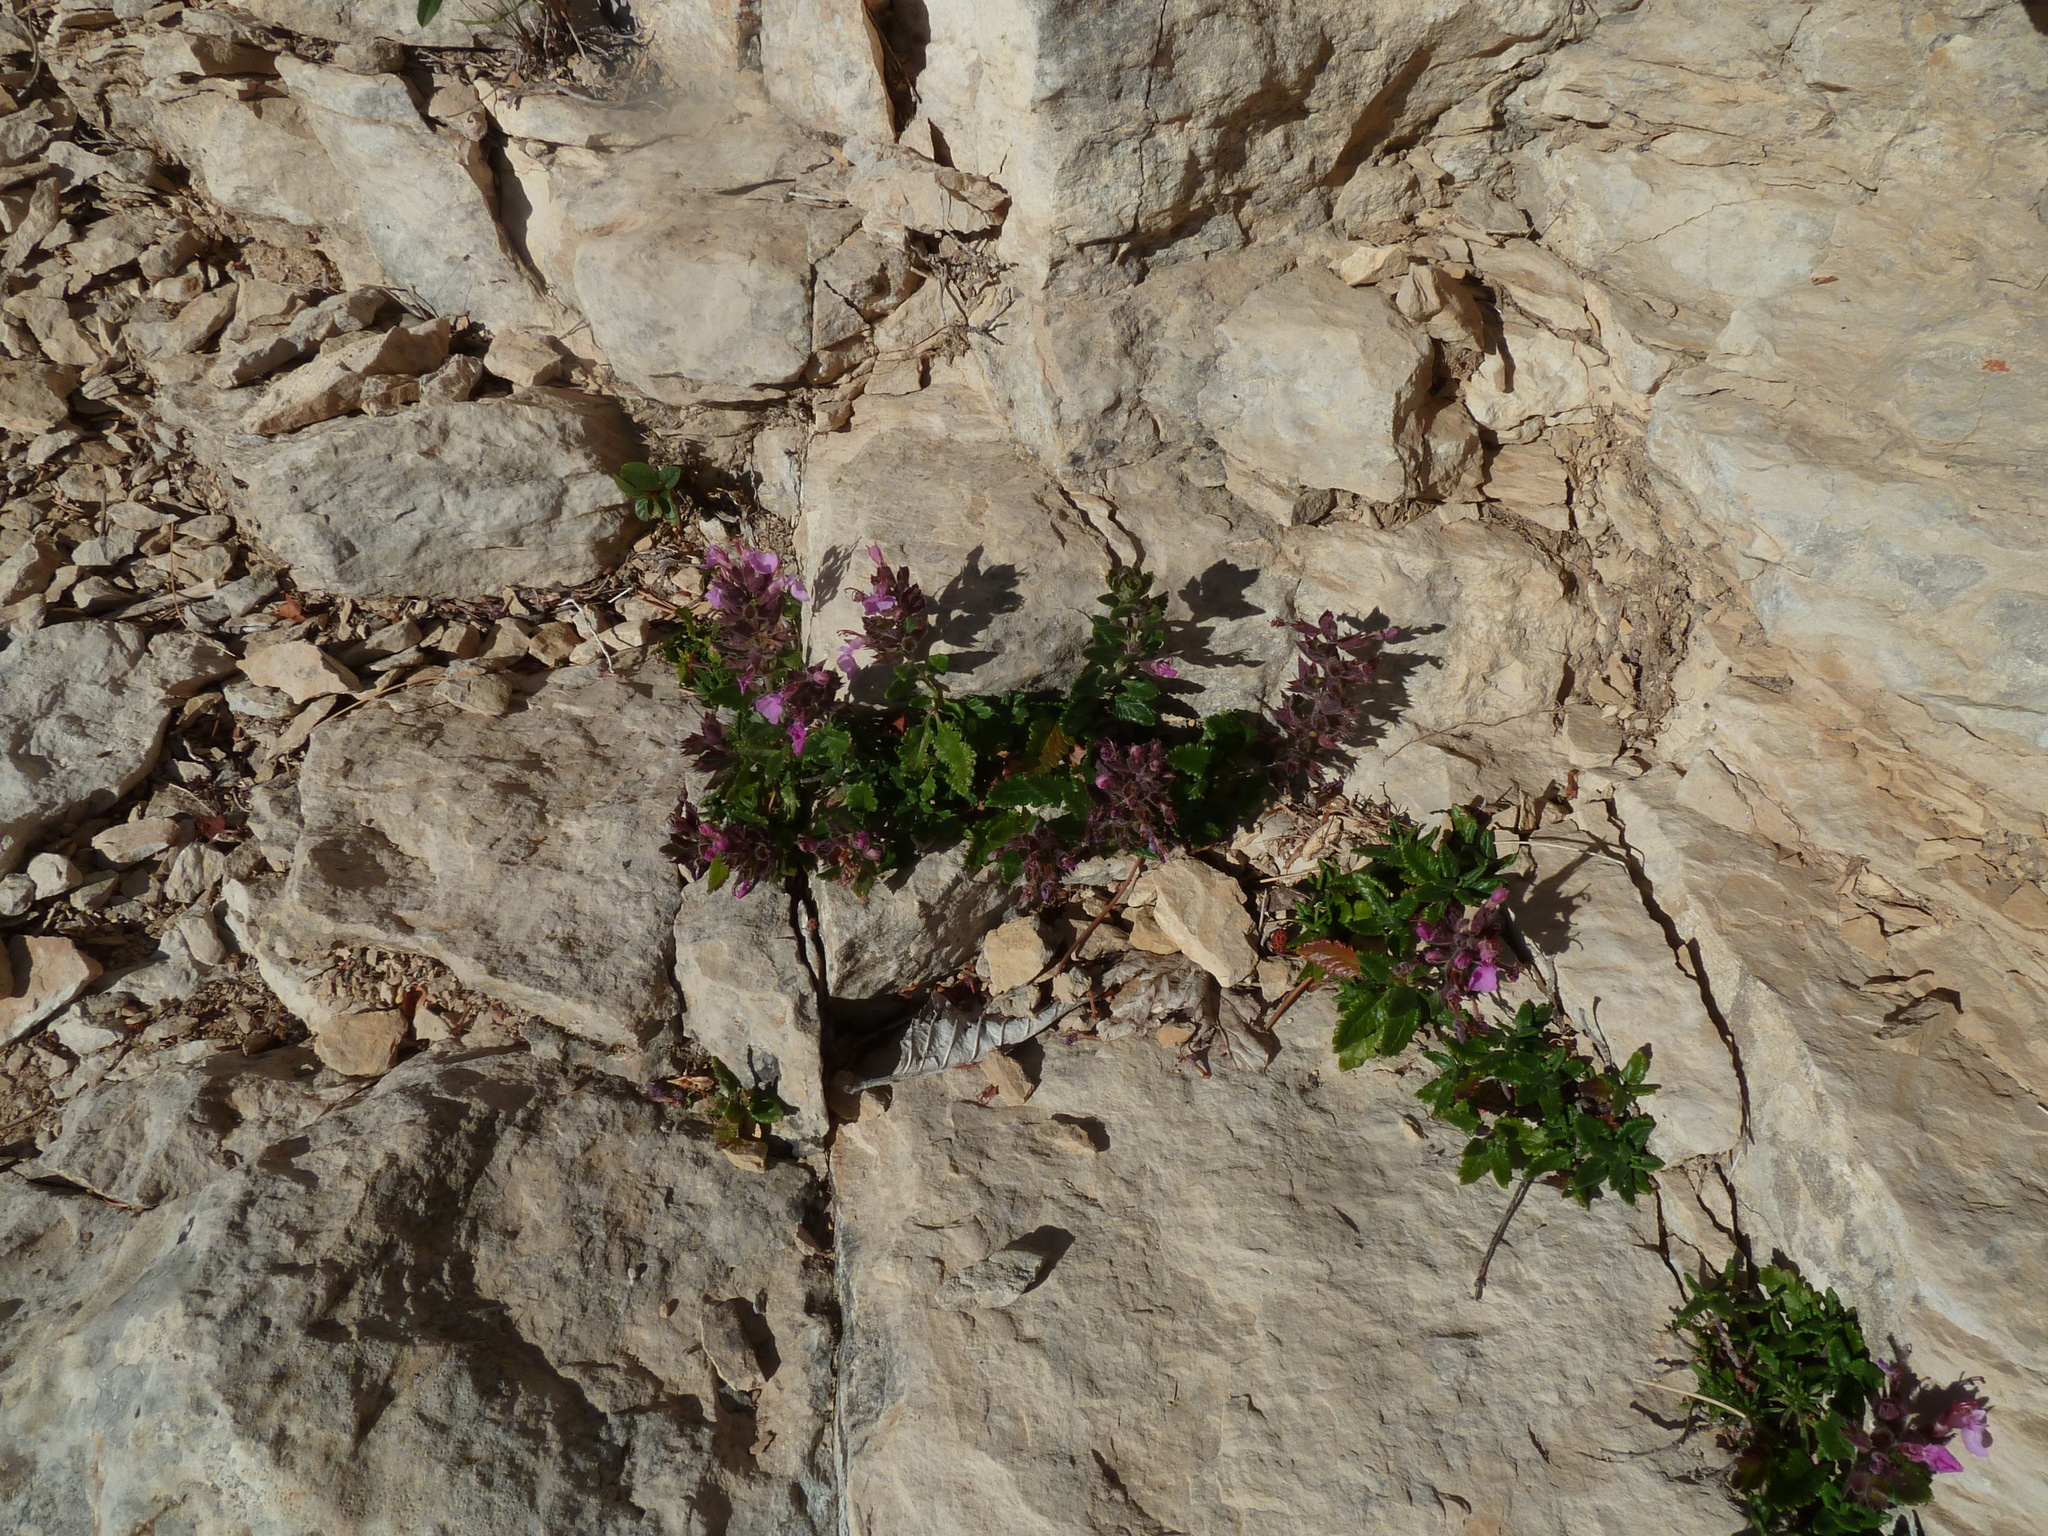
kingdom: Plantae
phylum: Tracheophyta
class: Magnoliopsida
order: Lamiales
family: Lamiaceae
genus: Teucrium
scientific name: Teucrium chamaedrys
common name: Wall germander
